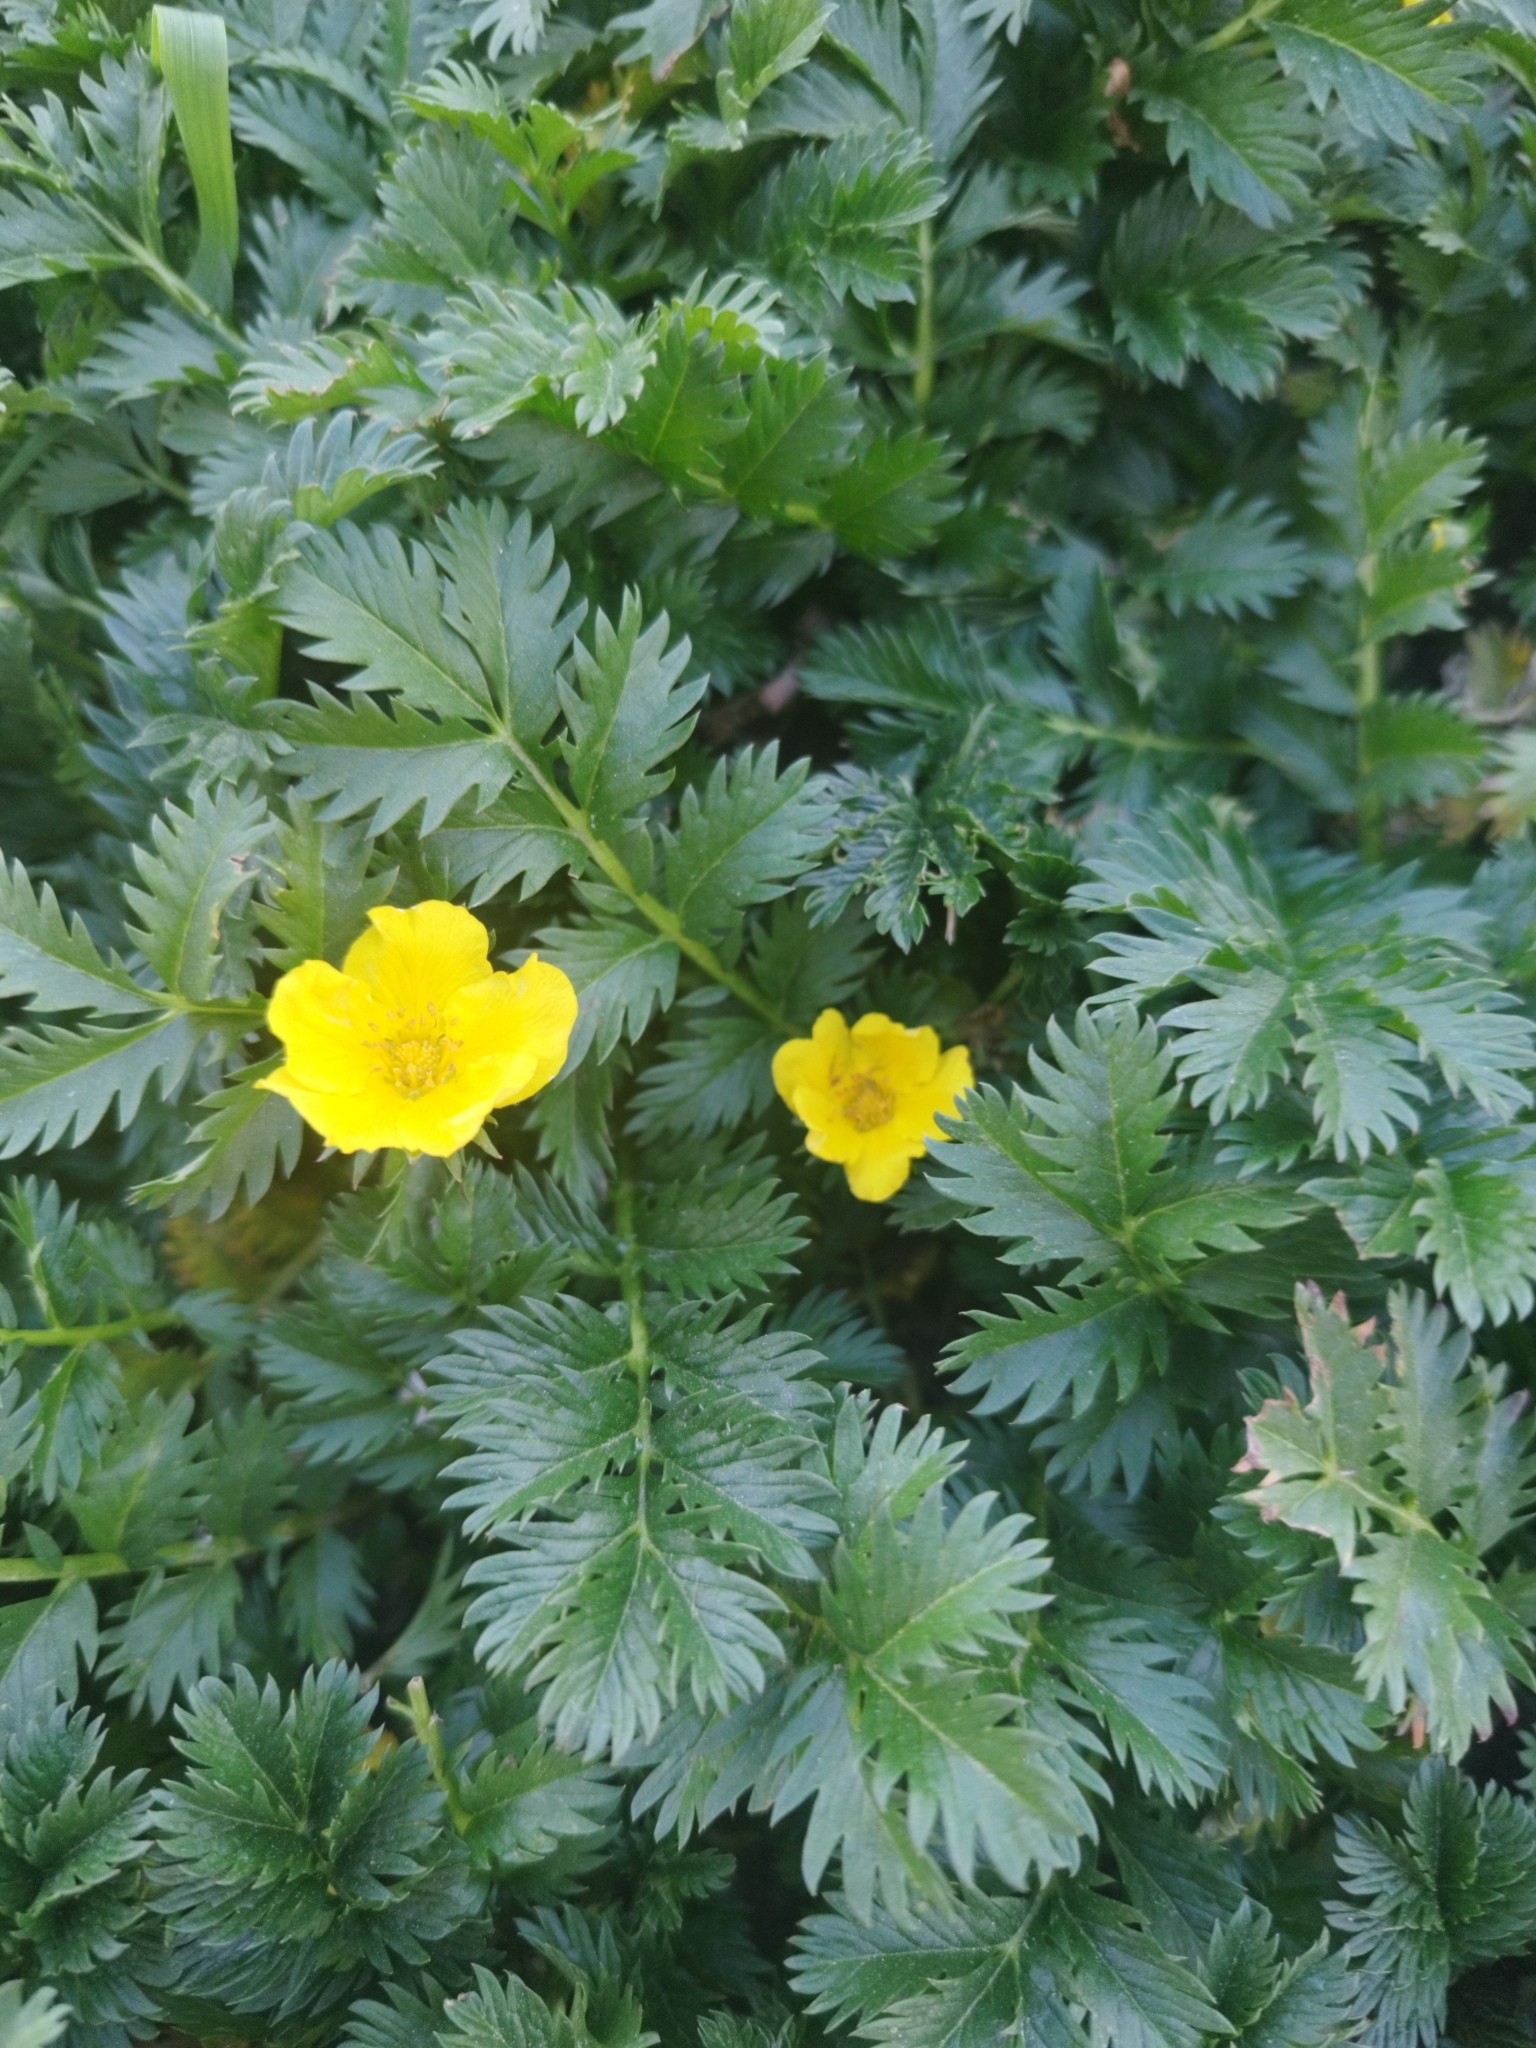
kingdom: Plantae
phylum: Tracheophyta
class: Magnoliopsida
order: Rosales
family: Rosaceae
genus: Argentina
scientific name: Argentina anserina
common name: Common silverweed
